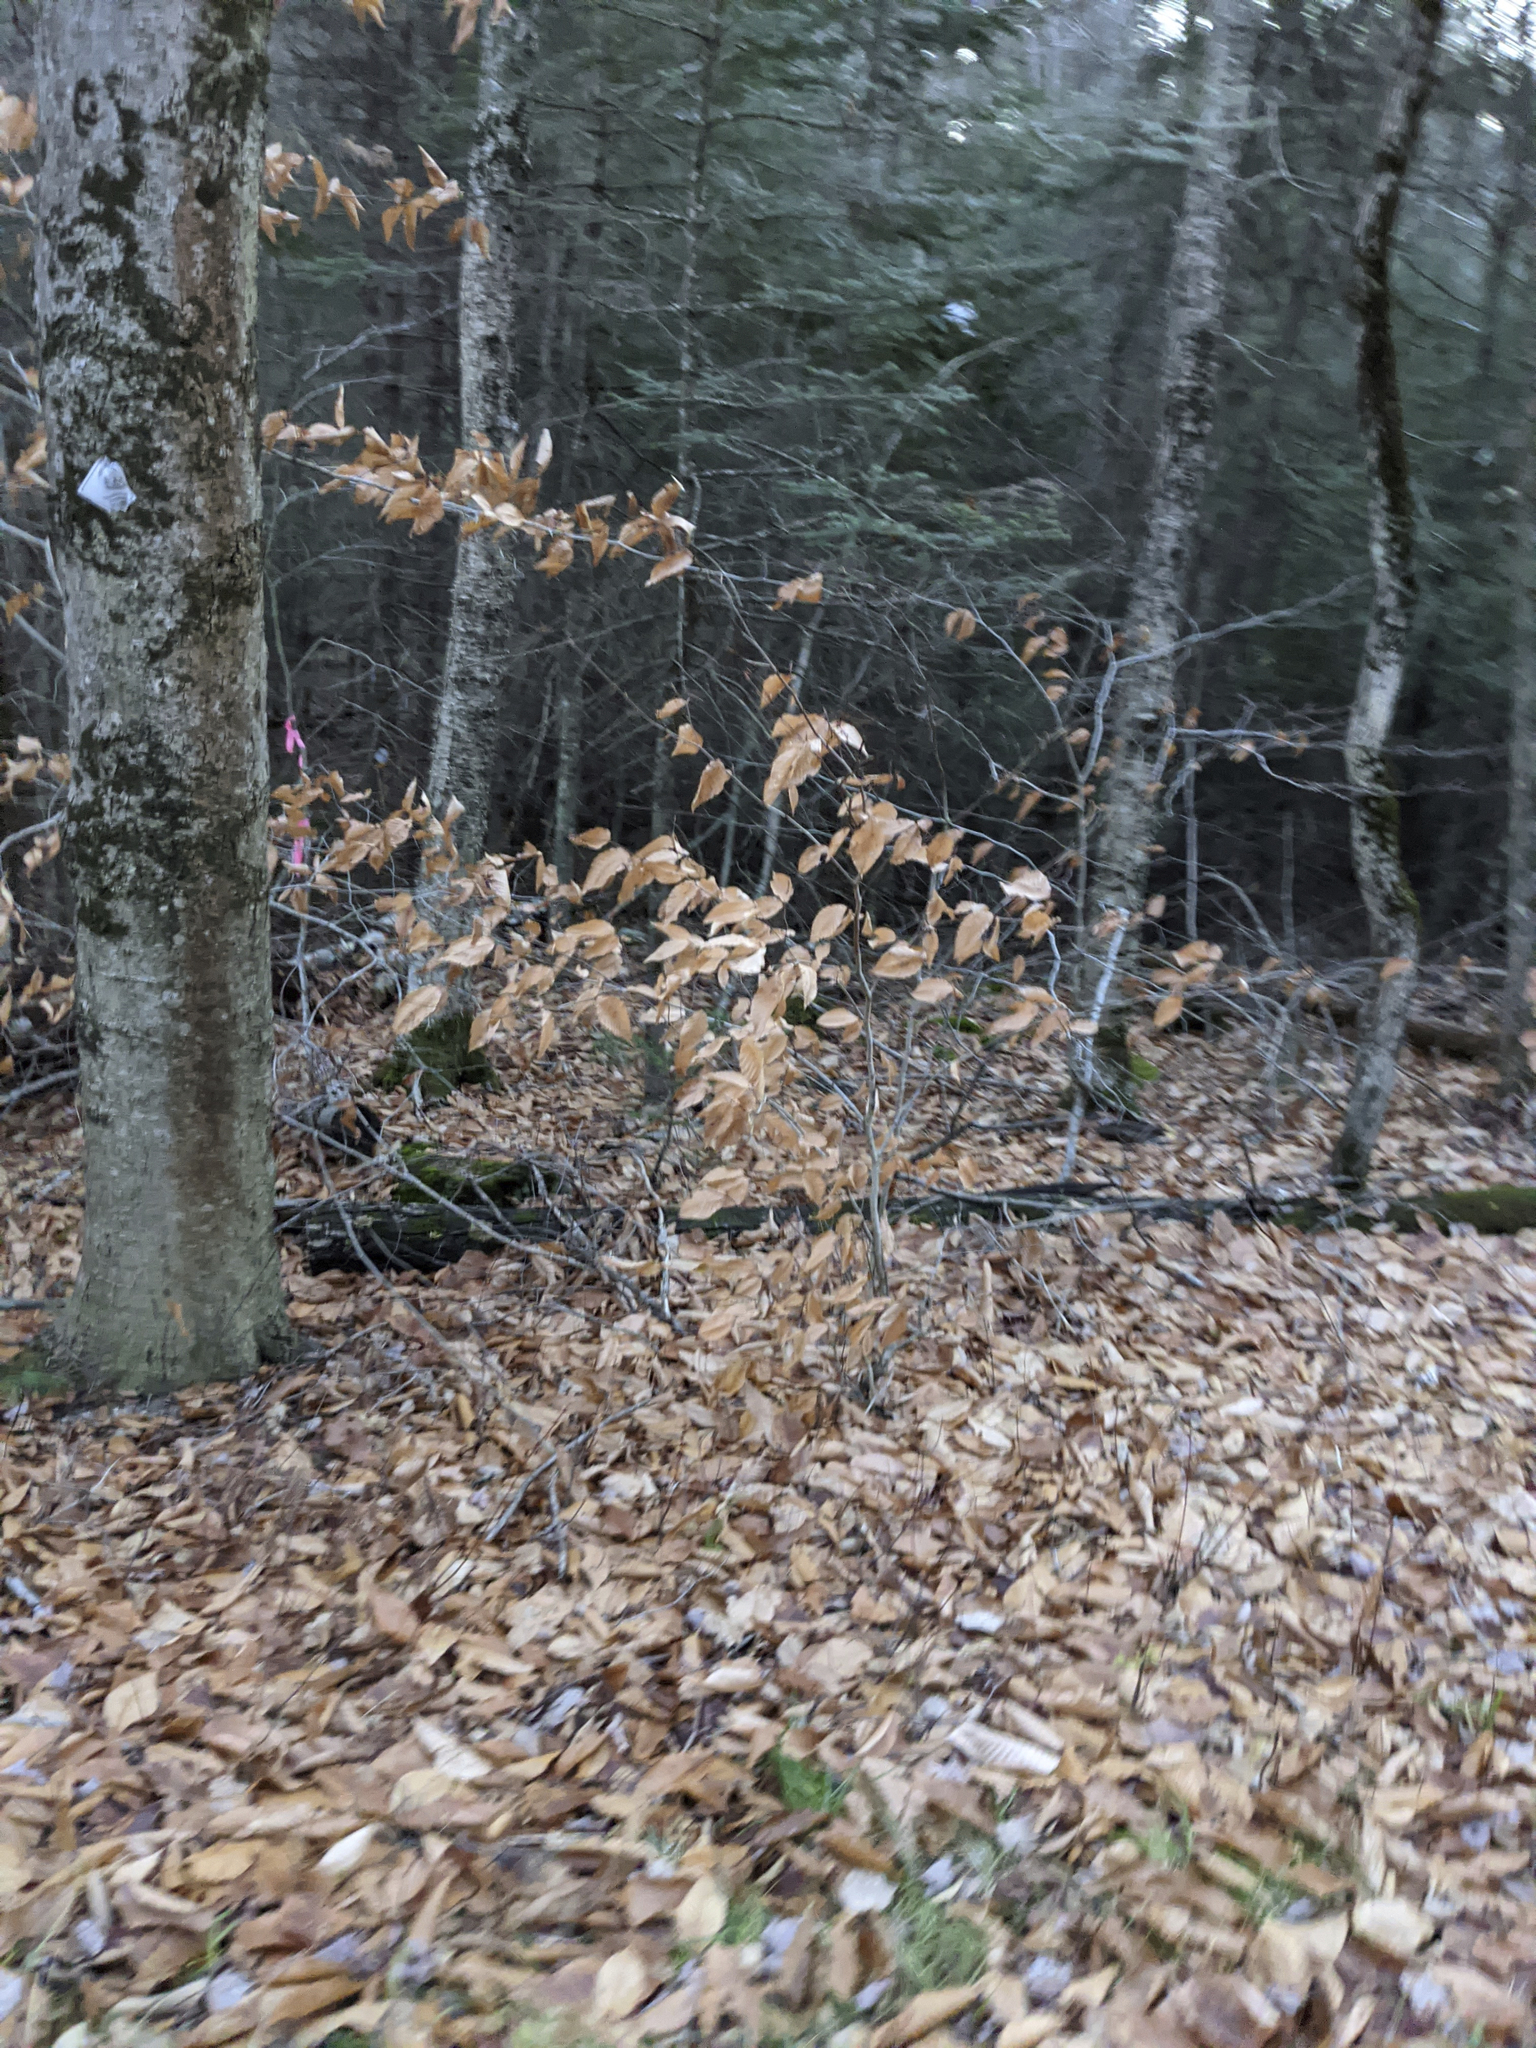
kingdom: Plantae
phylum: Tracheophyta
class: Magnoliopsida
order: Fagales
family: Fagaceae
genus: Fagus
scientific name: Fagus grandifolia
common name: American beech
